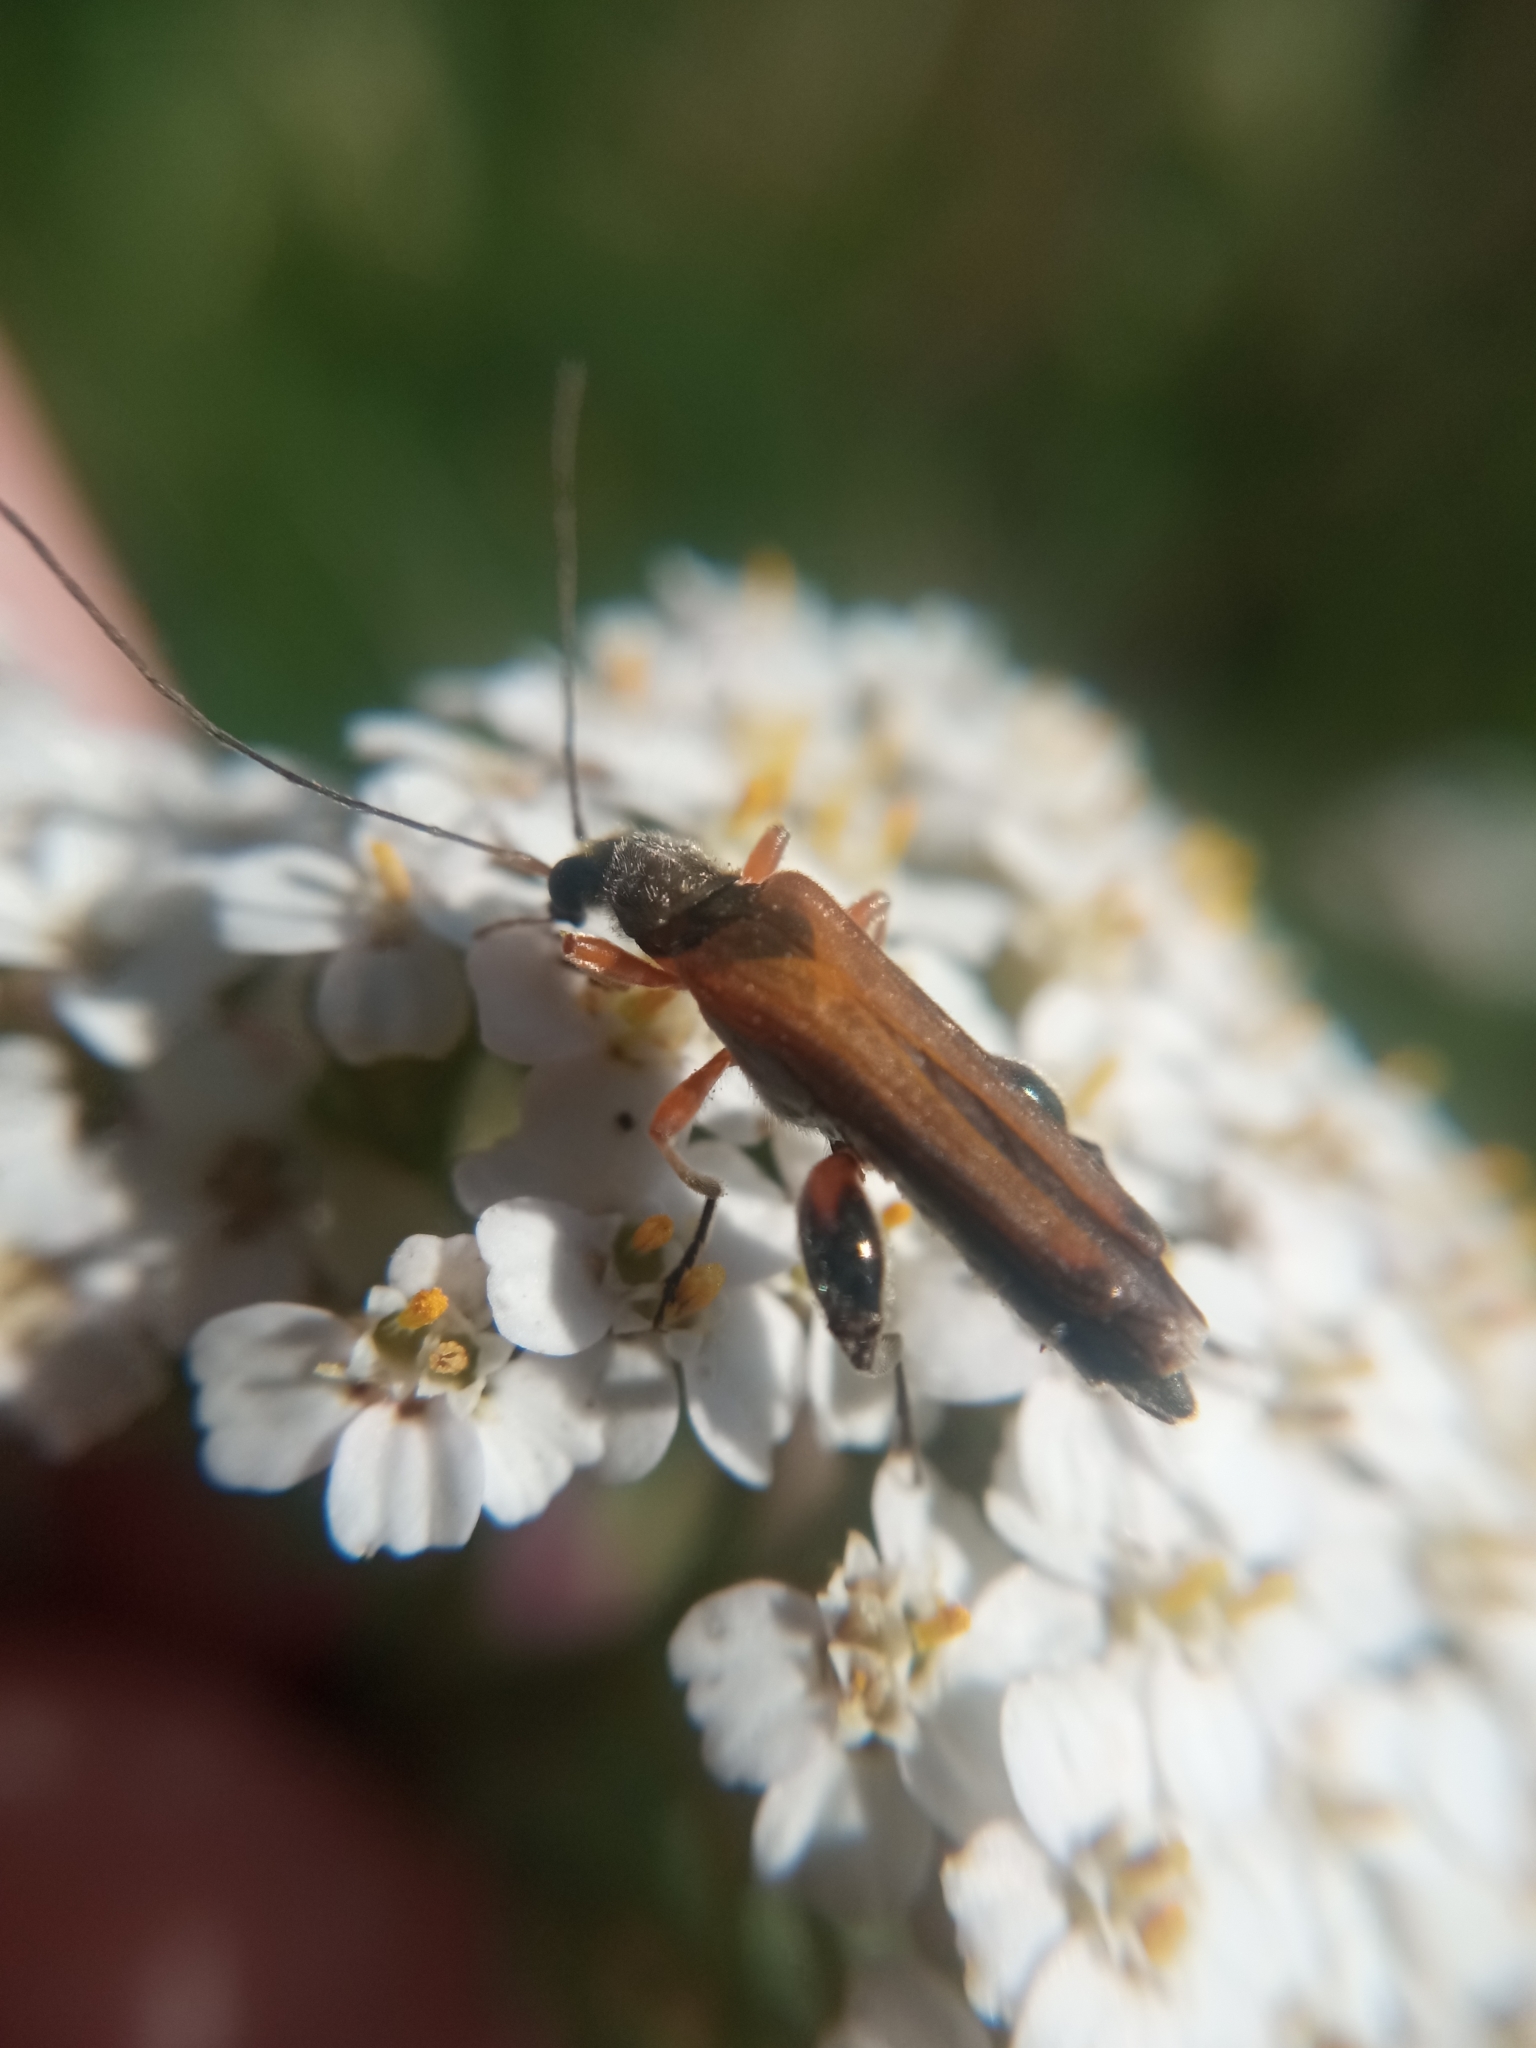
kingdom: Animalia
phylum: Arthropoda
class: Insecta
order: Coleoptera
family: Oedemeridae
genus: Oedemera
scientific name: Oedemera podagrariae
